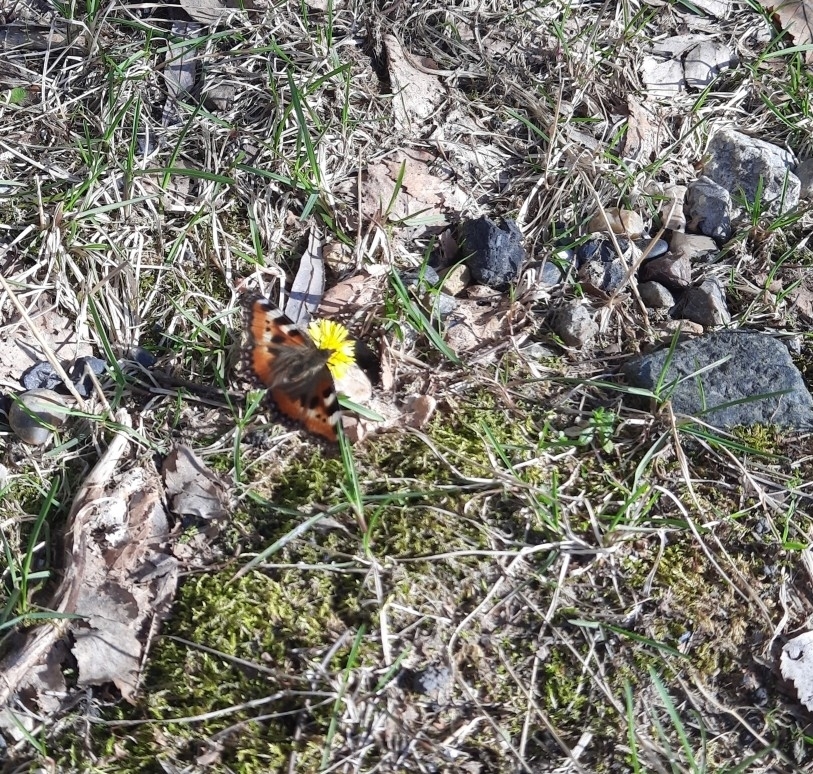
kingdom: Animalia
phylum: Arthropoda
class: Insecta
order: Lepidoptera
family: Nymphalidae
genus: Aglais
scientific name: Aglais urticae
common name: Small tortoiseshell
